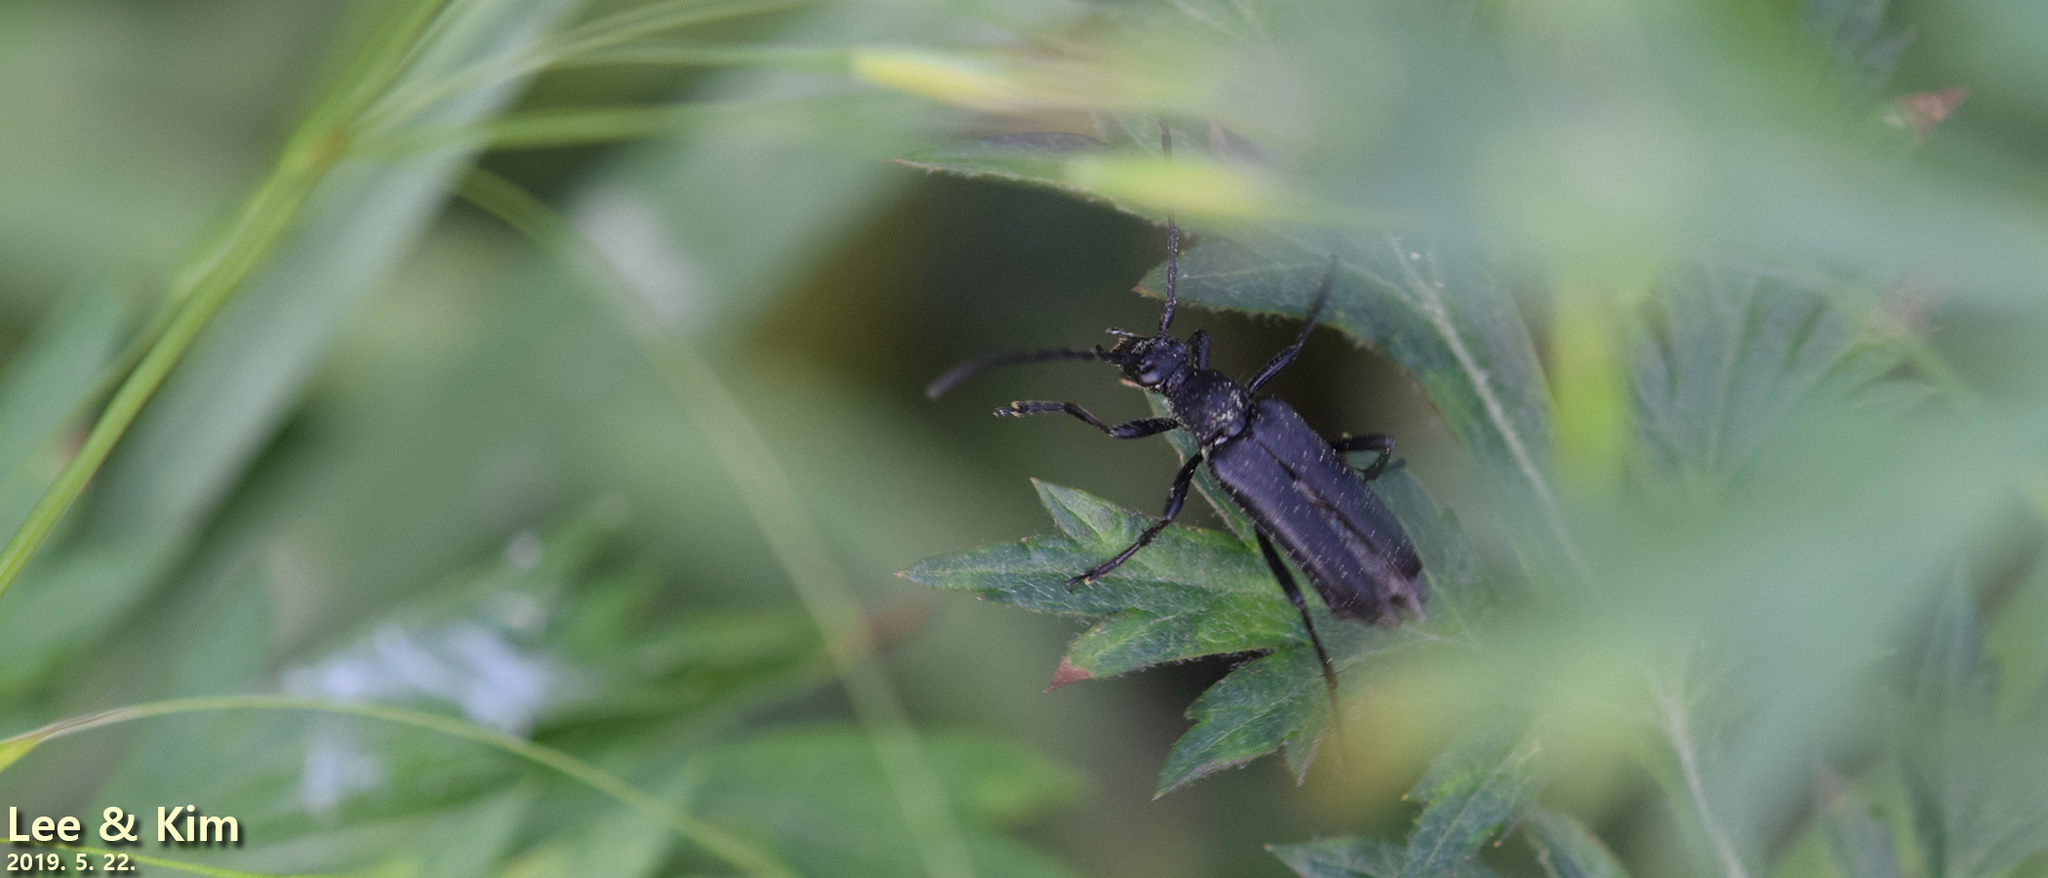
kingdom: Animalia
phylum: Arthropoda
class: Insecta
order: Coleoptera
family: Cerambycidae
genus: Leptura
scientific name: Leptura aethiops
